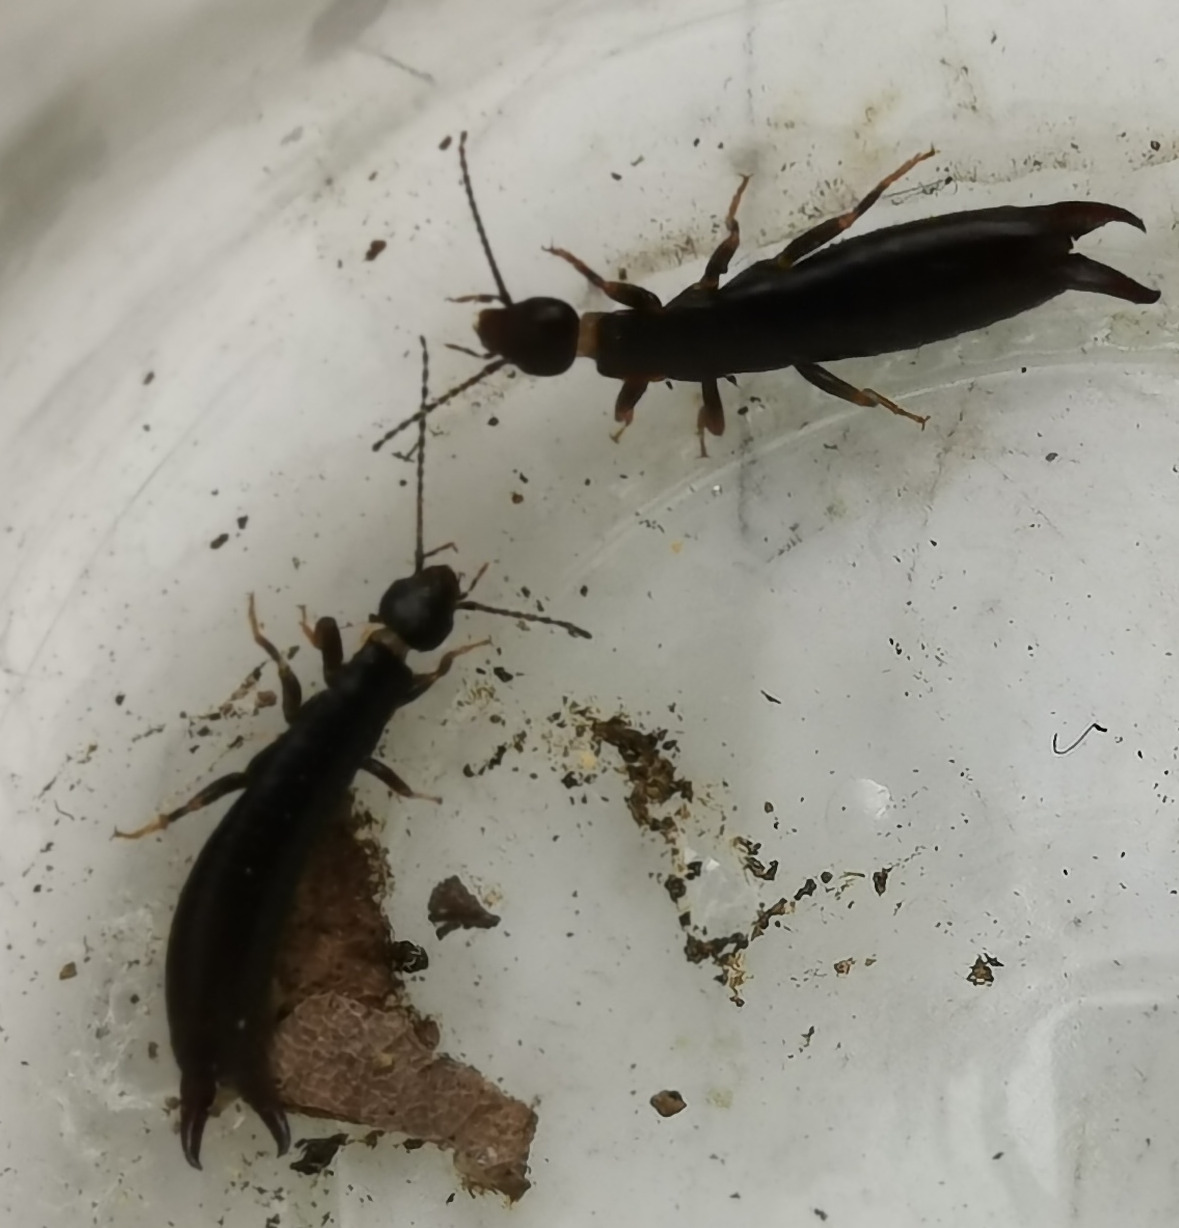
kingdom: Animalia
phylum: Arthropoda
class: Insecta
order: Dermaptera
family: Anisolabididae
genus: Euborellia
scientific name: Euborellia moesta
